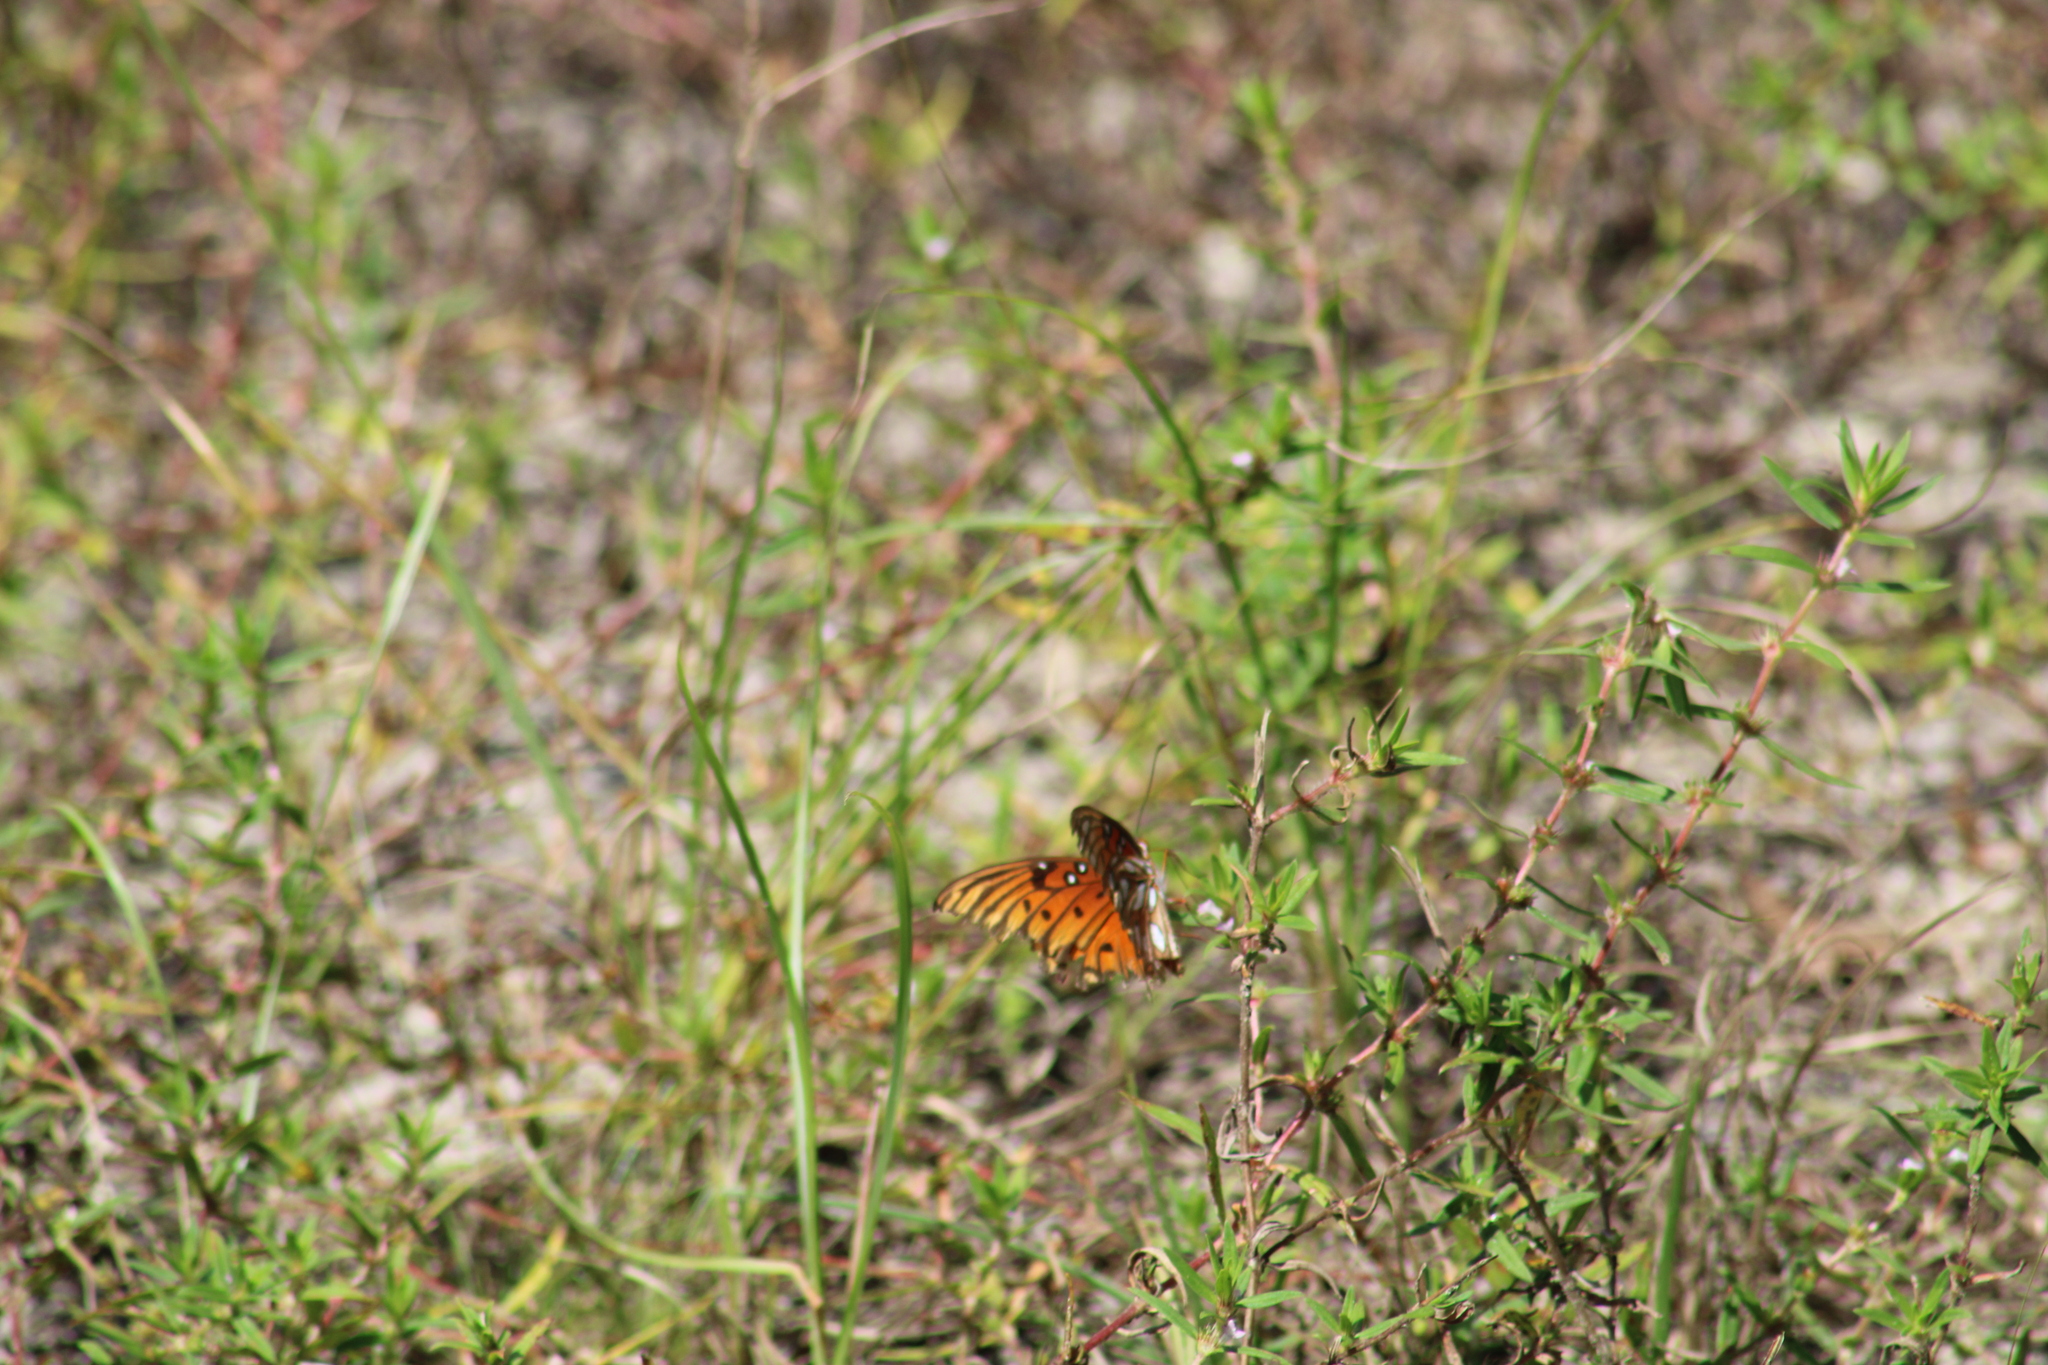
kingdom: Animalia
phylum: Arthropoda
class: Insecta
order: Lepidoptera
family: Nymphalidae
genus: Dione
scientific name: Dione vanillae
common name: Gulf fritillary
